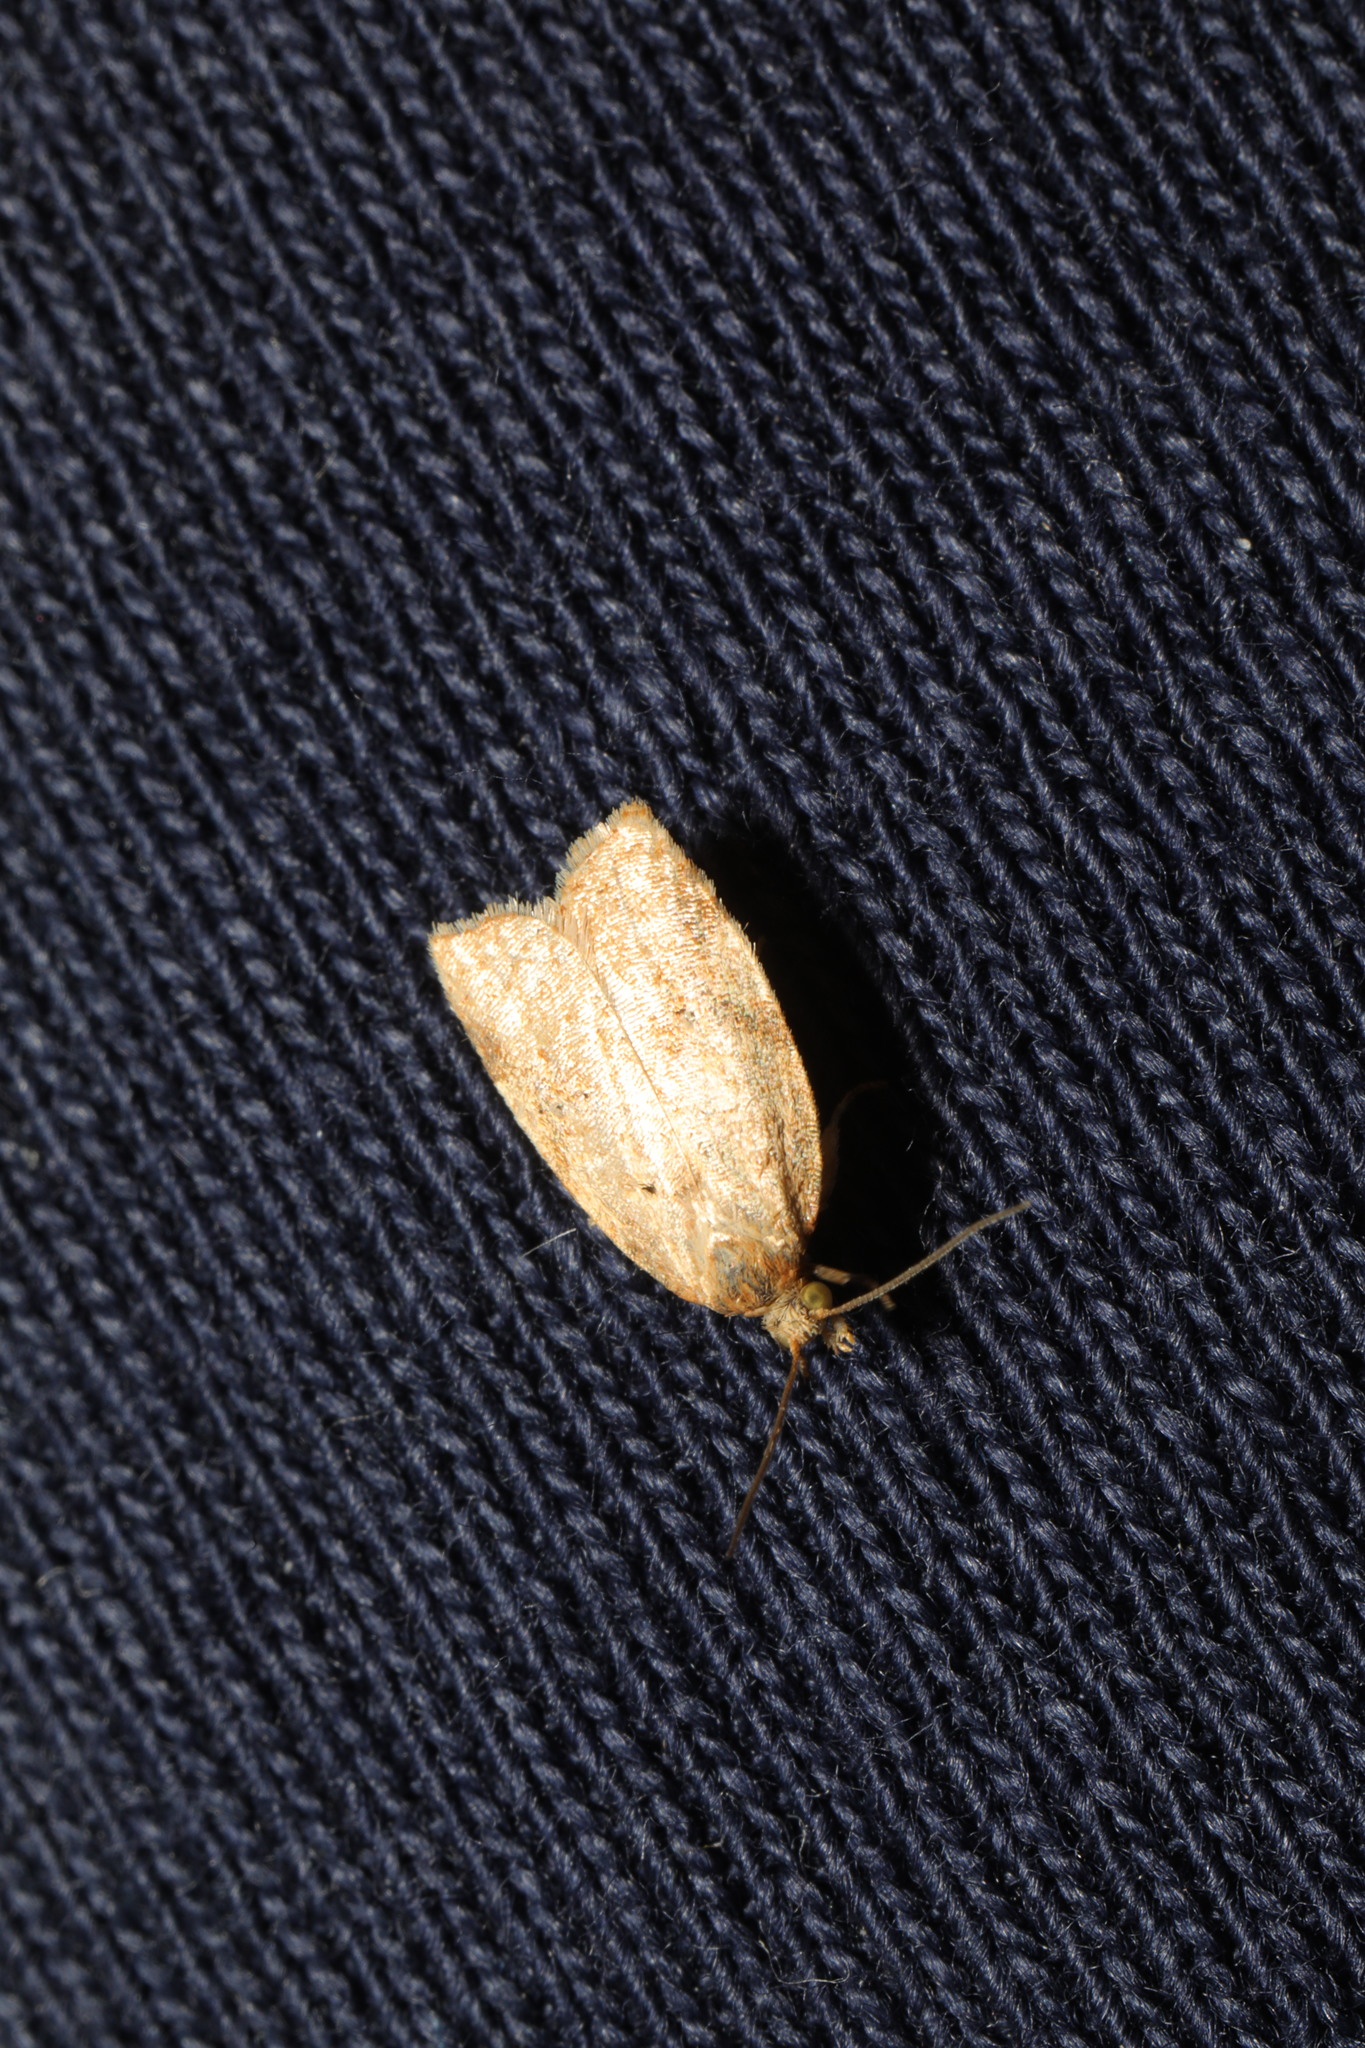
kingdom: Animalia
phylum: Arthropoda
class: Insecta
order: Lepidoptera
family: Tortricidae
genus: Clepsis
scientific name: Clepsis consimilana
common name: Privet tortrix
